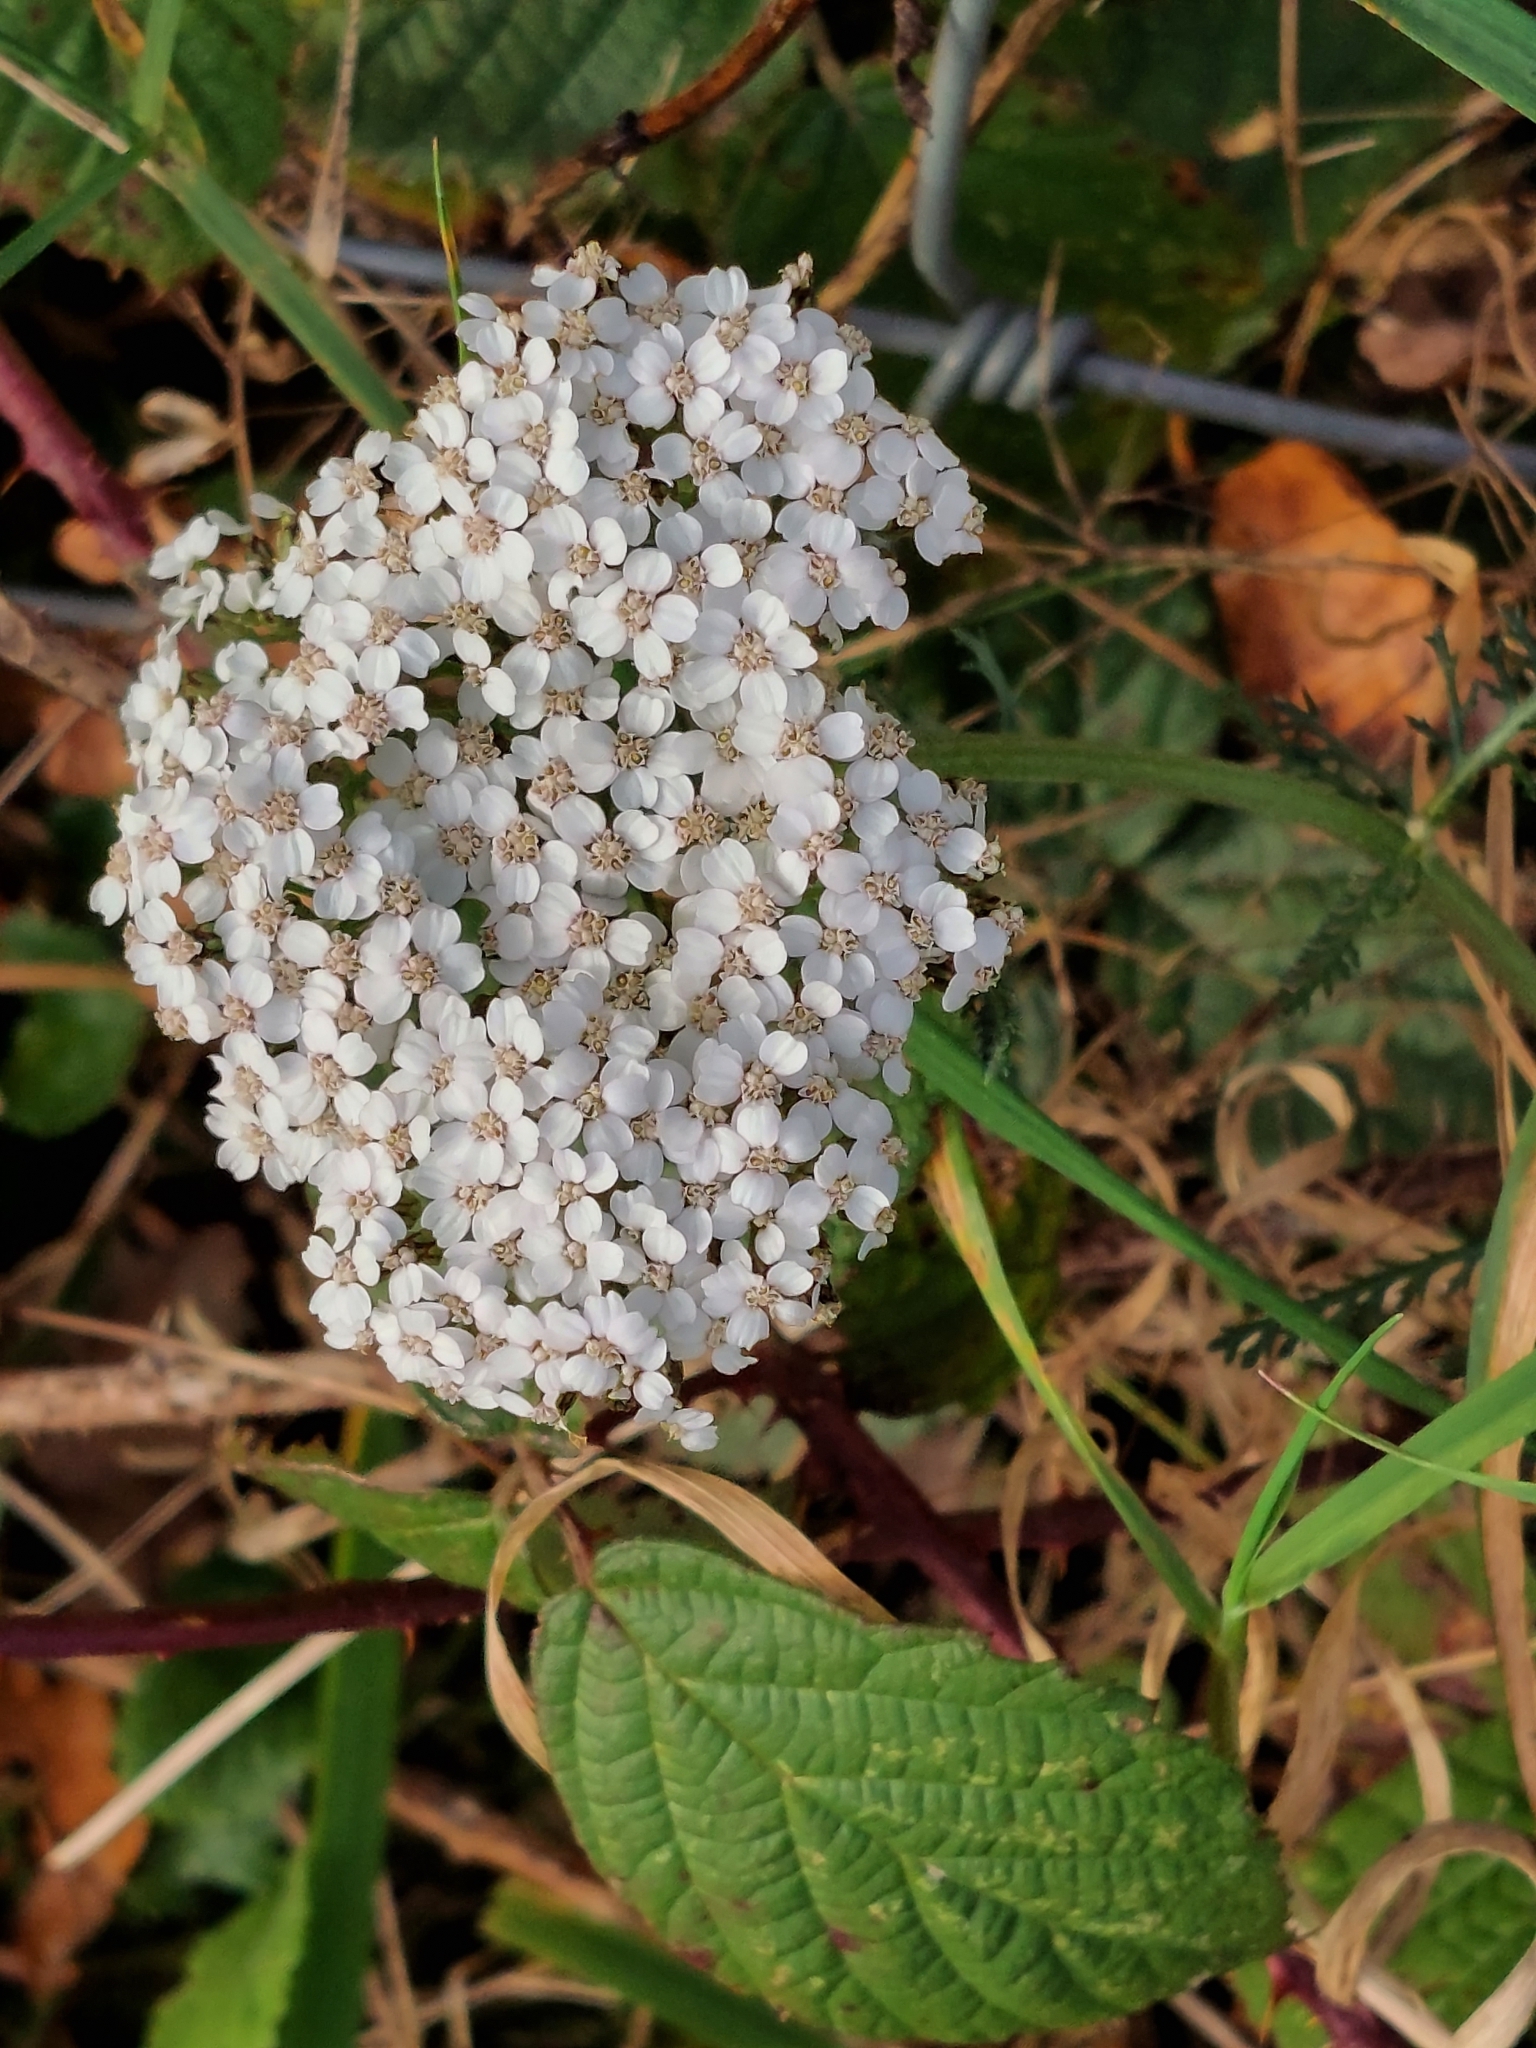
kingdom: Plantae
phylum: Tracheophyta
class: Magnoliopsida
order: Asterales
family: Asteraceae
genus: Achillea
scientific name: Achillea millefolium
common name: Yarrow
